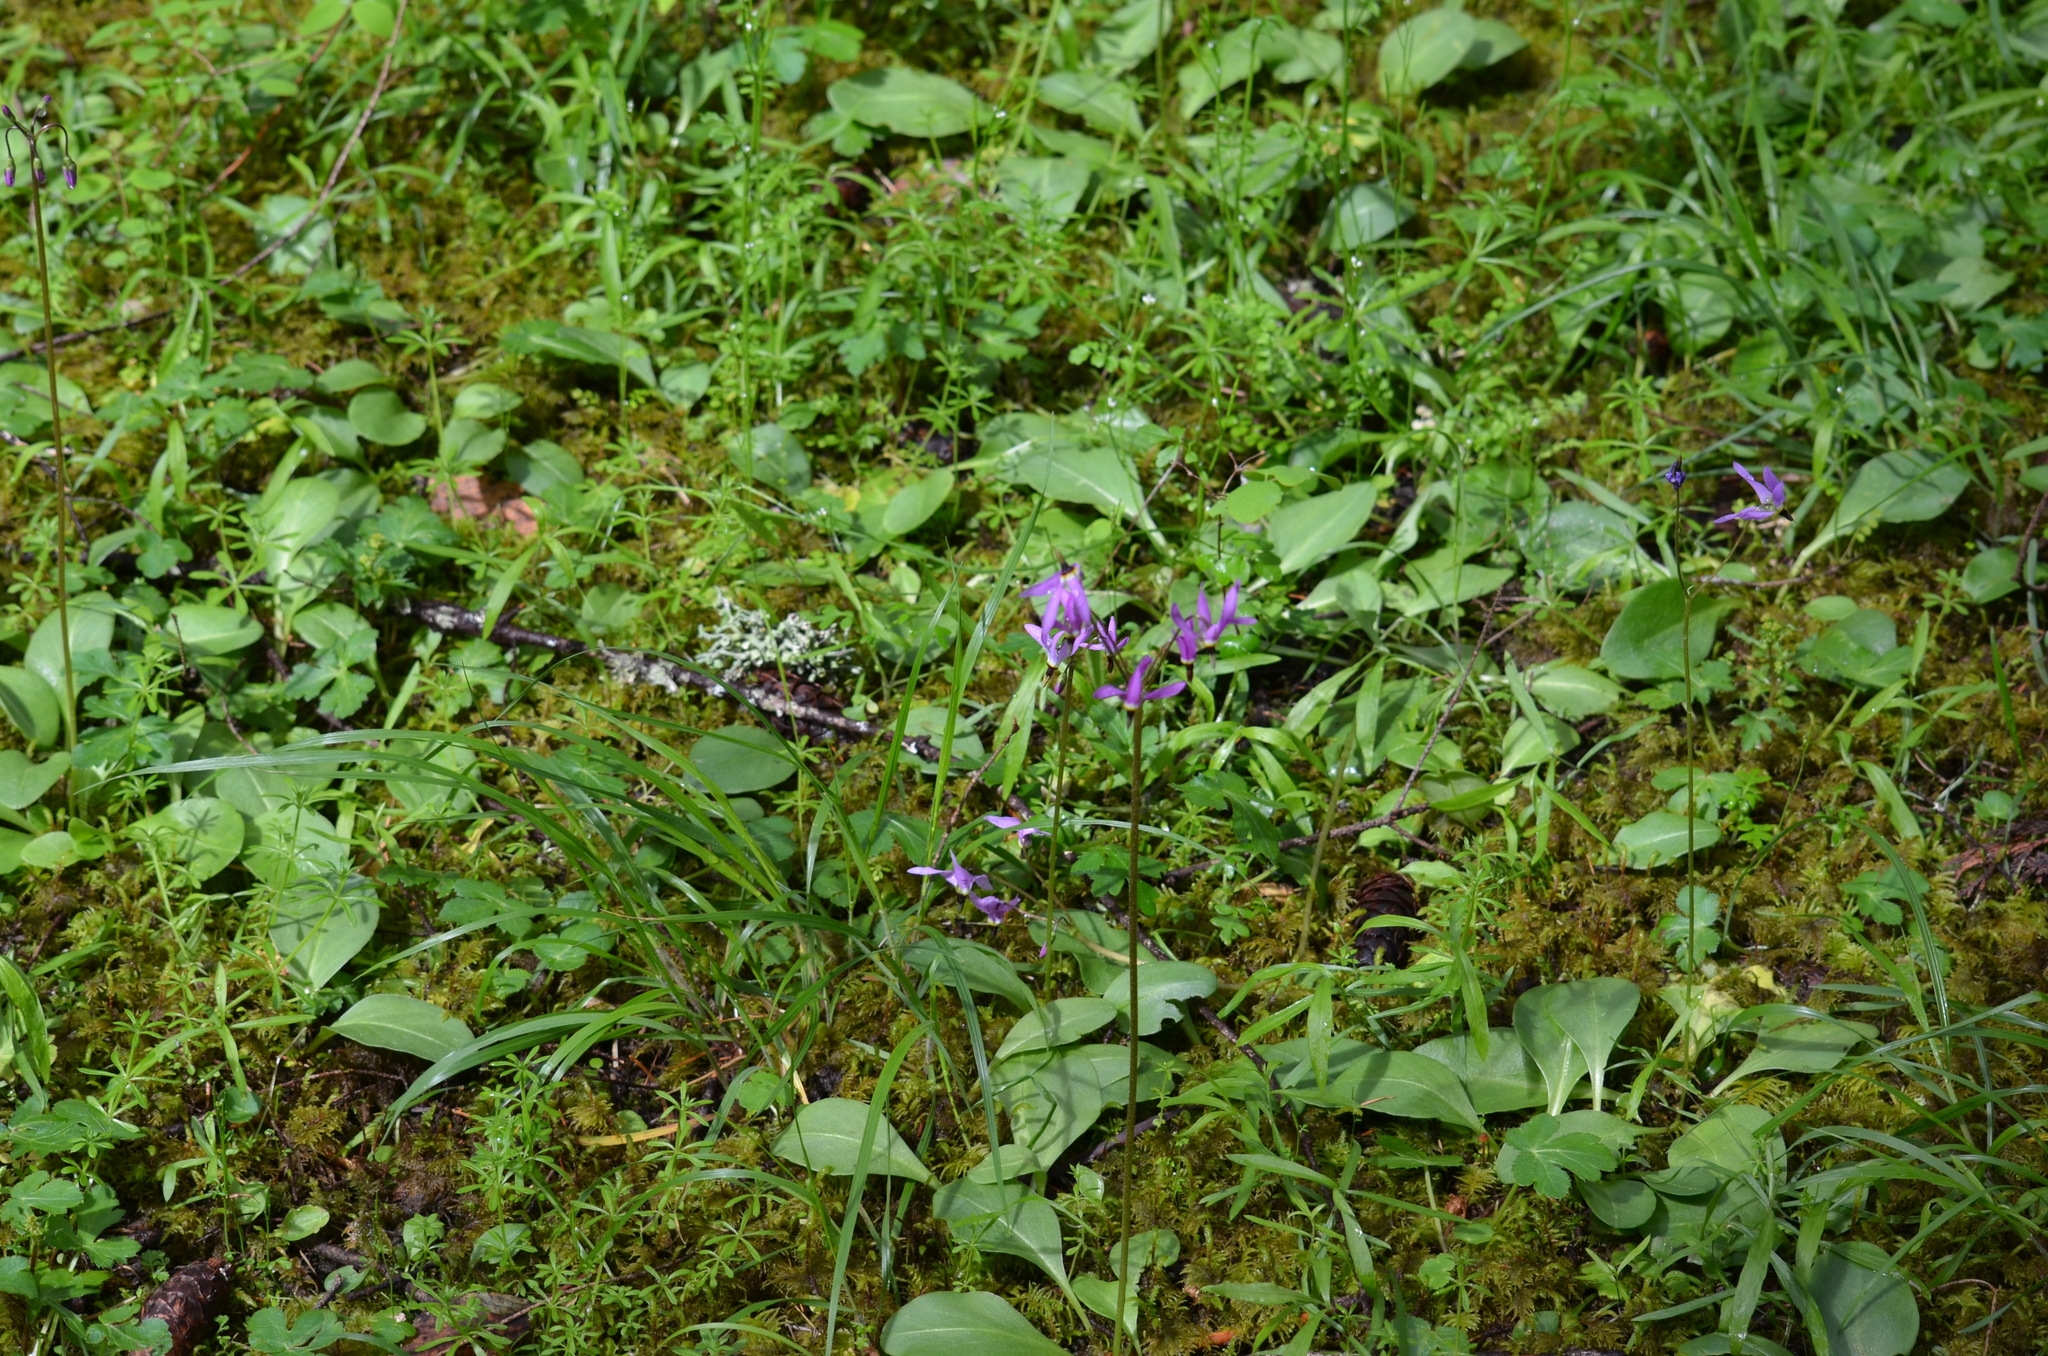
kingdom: Plantae
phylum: Tracheophyta
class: Magnoliopsida
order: Ericales
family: Primulaceae
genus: Dodecatheon
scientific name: Dodecatheon hendersonii
